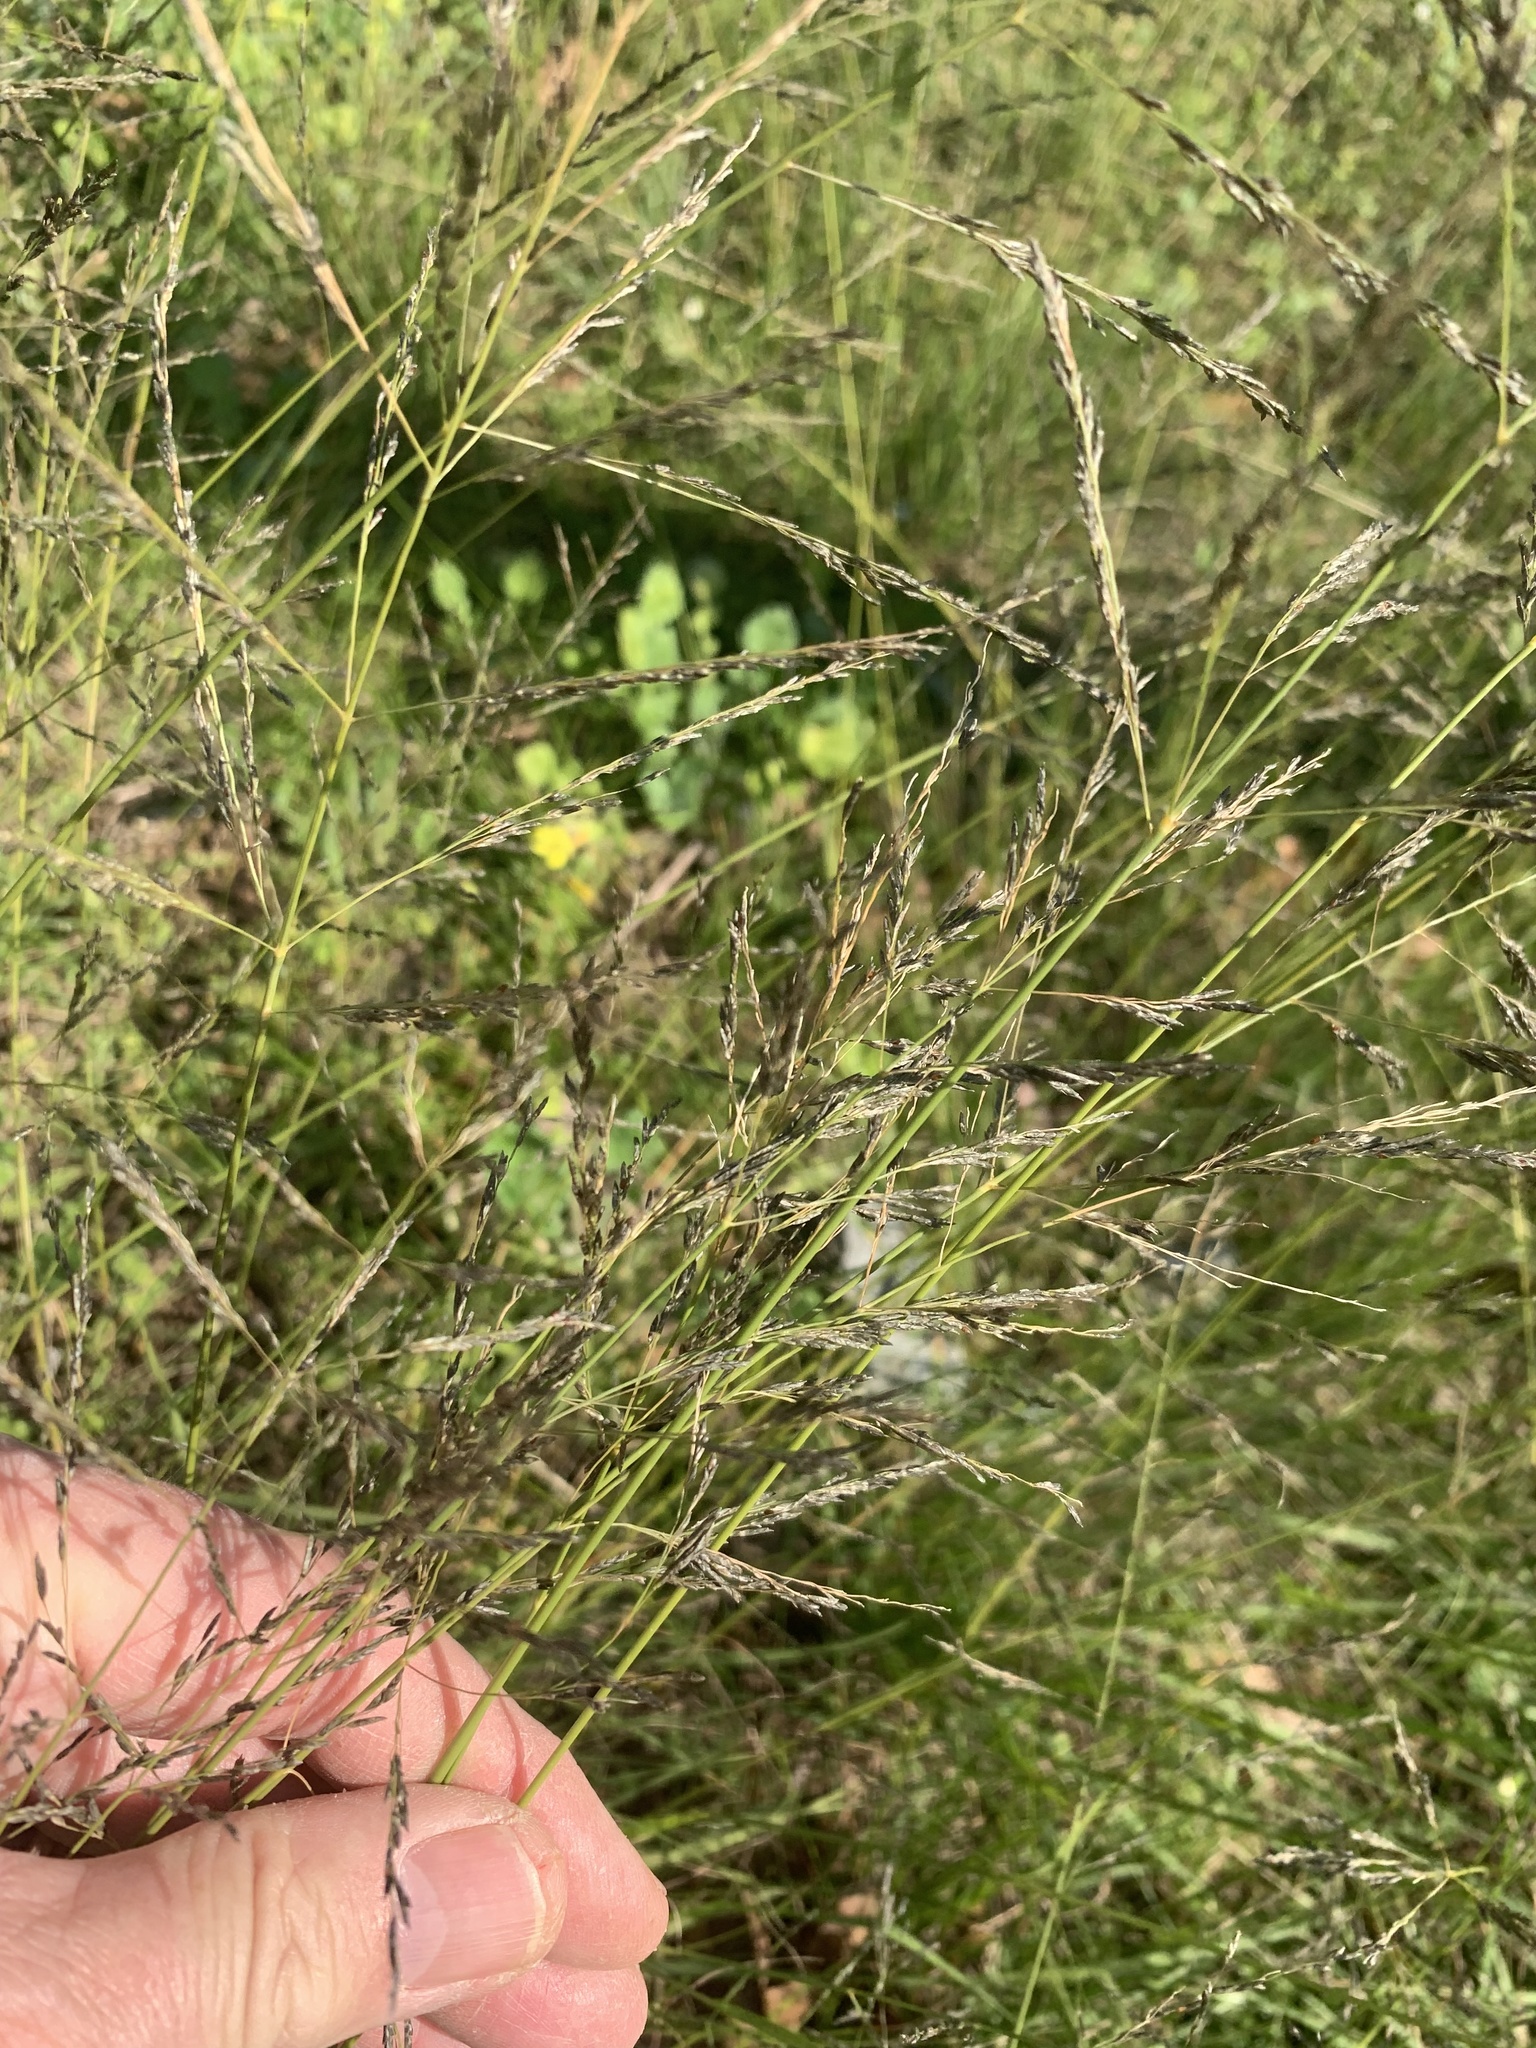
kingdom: Plantae
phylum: Tracheophyta
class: Liliopsida
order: Poales
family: Poaceae
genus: Eragrostis
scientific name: Eragrostis curvula
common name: African love-grass
